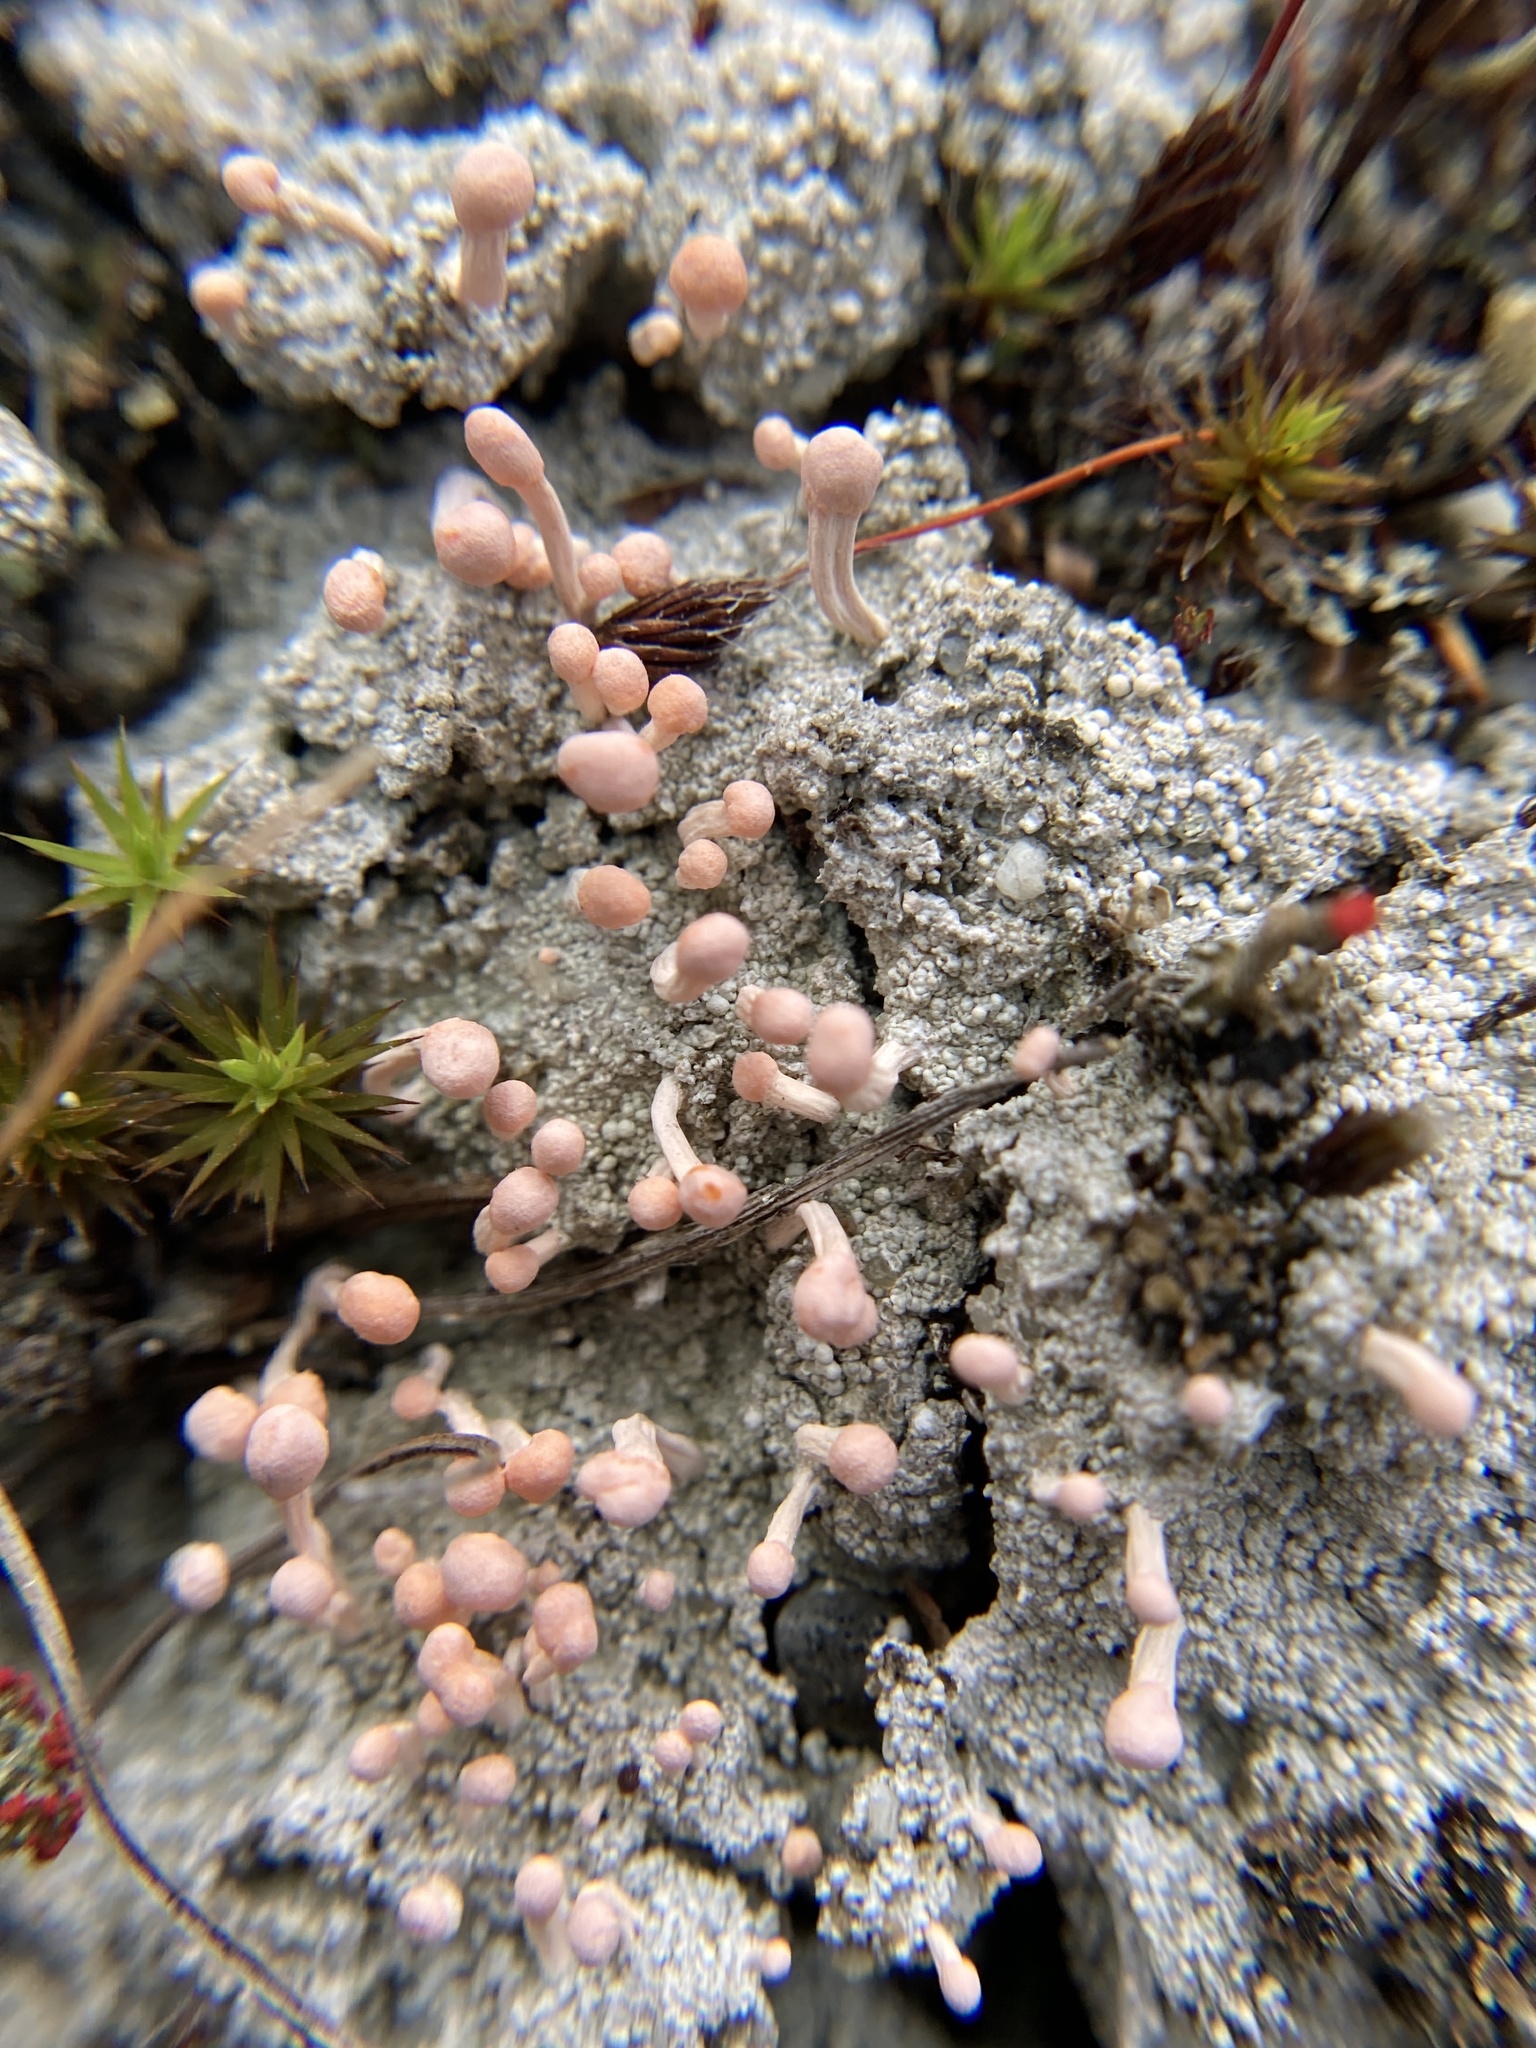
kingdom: Fungi
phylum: Ascomycota
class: Lecanoromycetes
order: Pertusariales
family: Icmadophilaceae
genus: Dibaeis
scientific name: Dibaeis baeomyces
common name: Pink earth lichen
